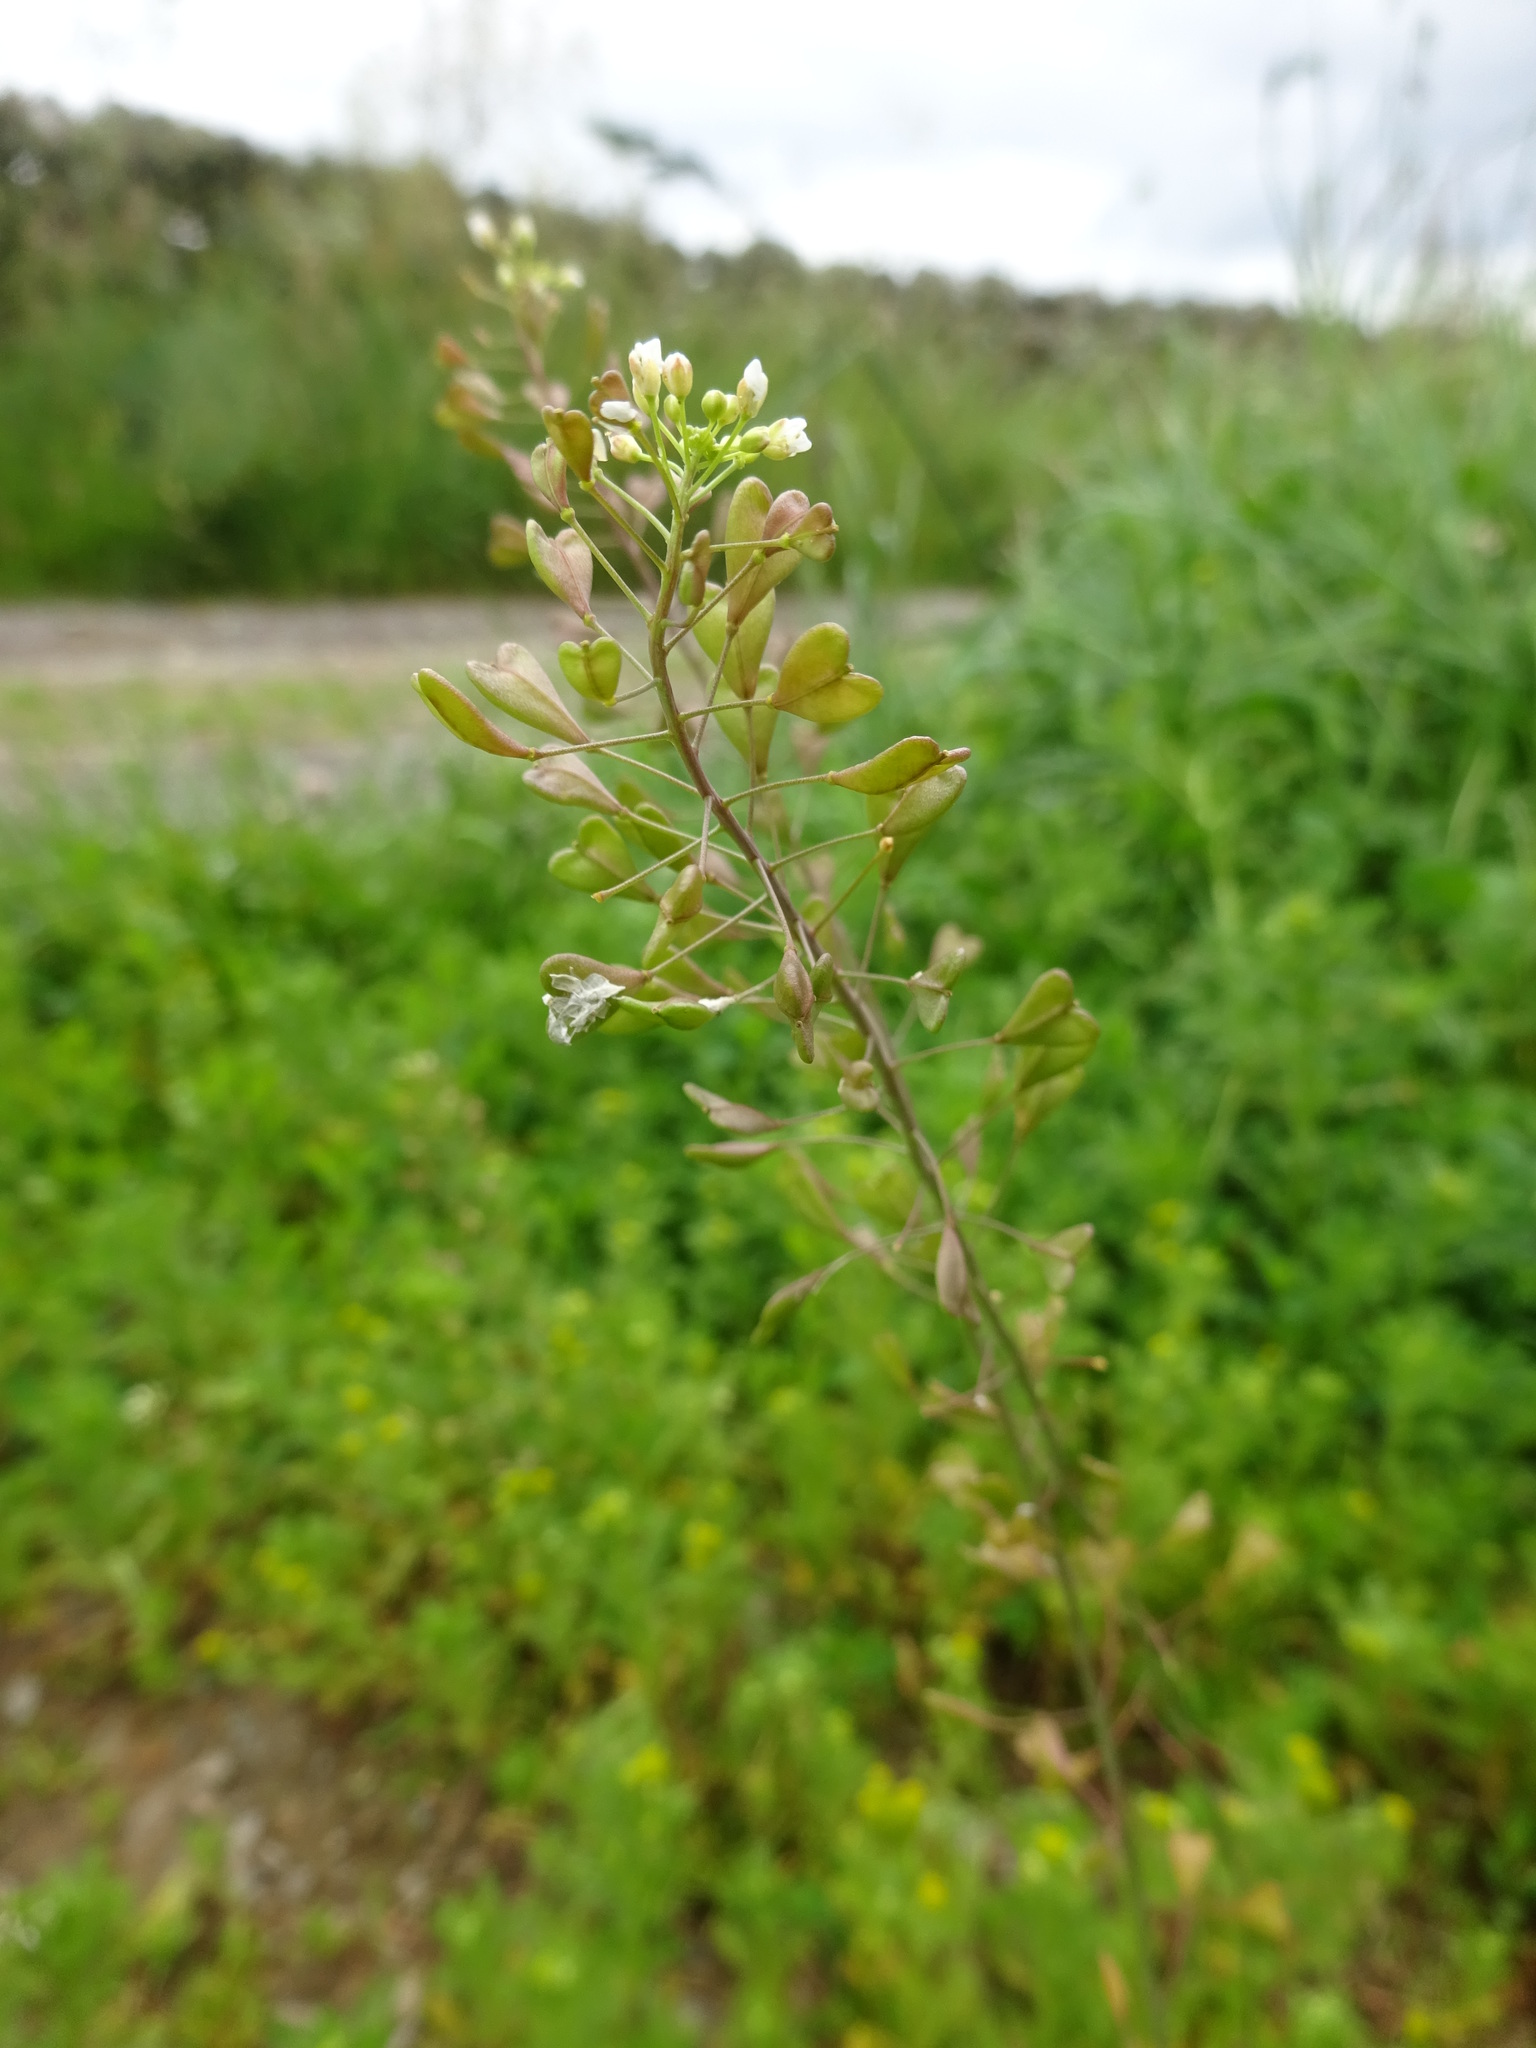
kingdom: Plantae
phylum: Tracheophyta
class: Magnoliopsida
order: Brassicales
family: Brassicaceae
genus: Capsella
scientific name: Capsella bursa-pastoris
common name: Shepherd's purse
